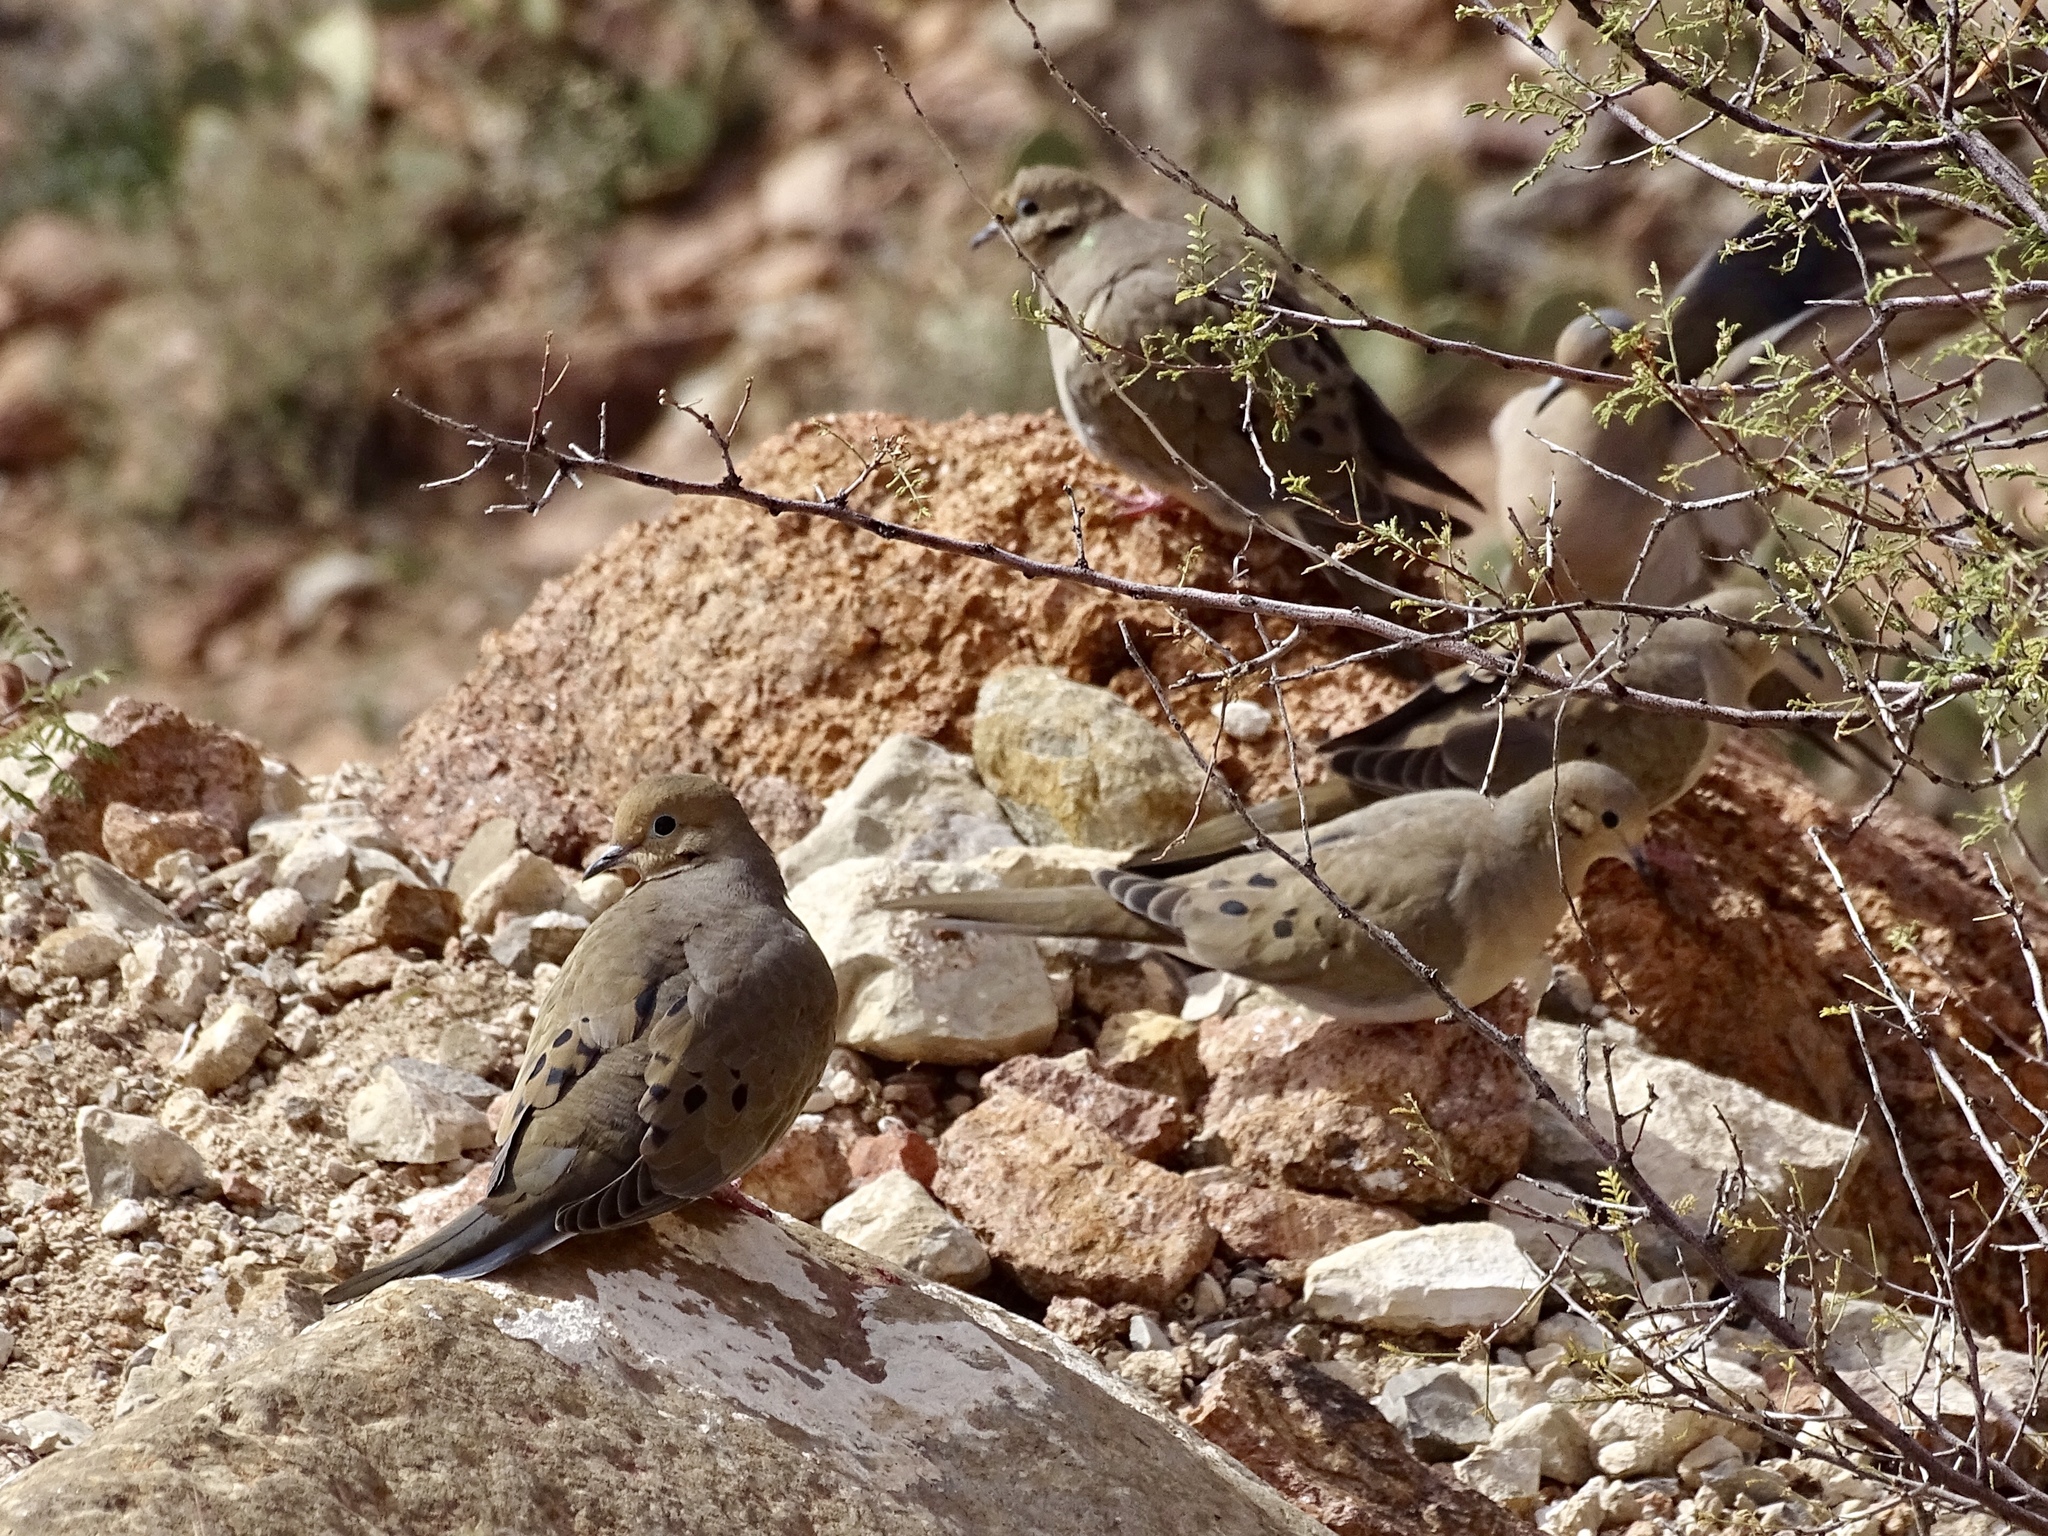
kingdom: Animalia
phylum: Chordata
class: Aves
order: Columbiformes
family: Columbidae
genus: Zenaida
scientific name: Zenaida macroura
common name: Mourning dove
